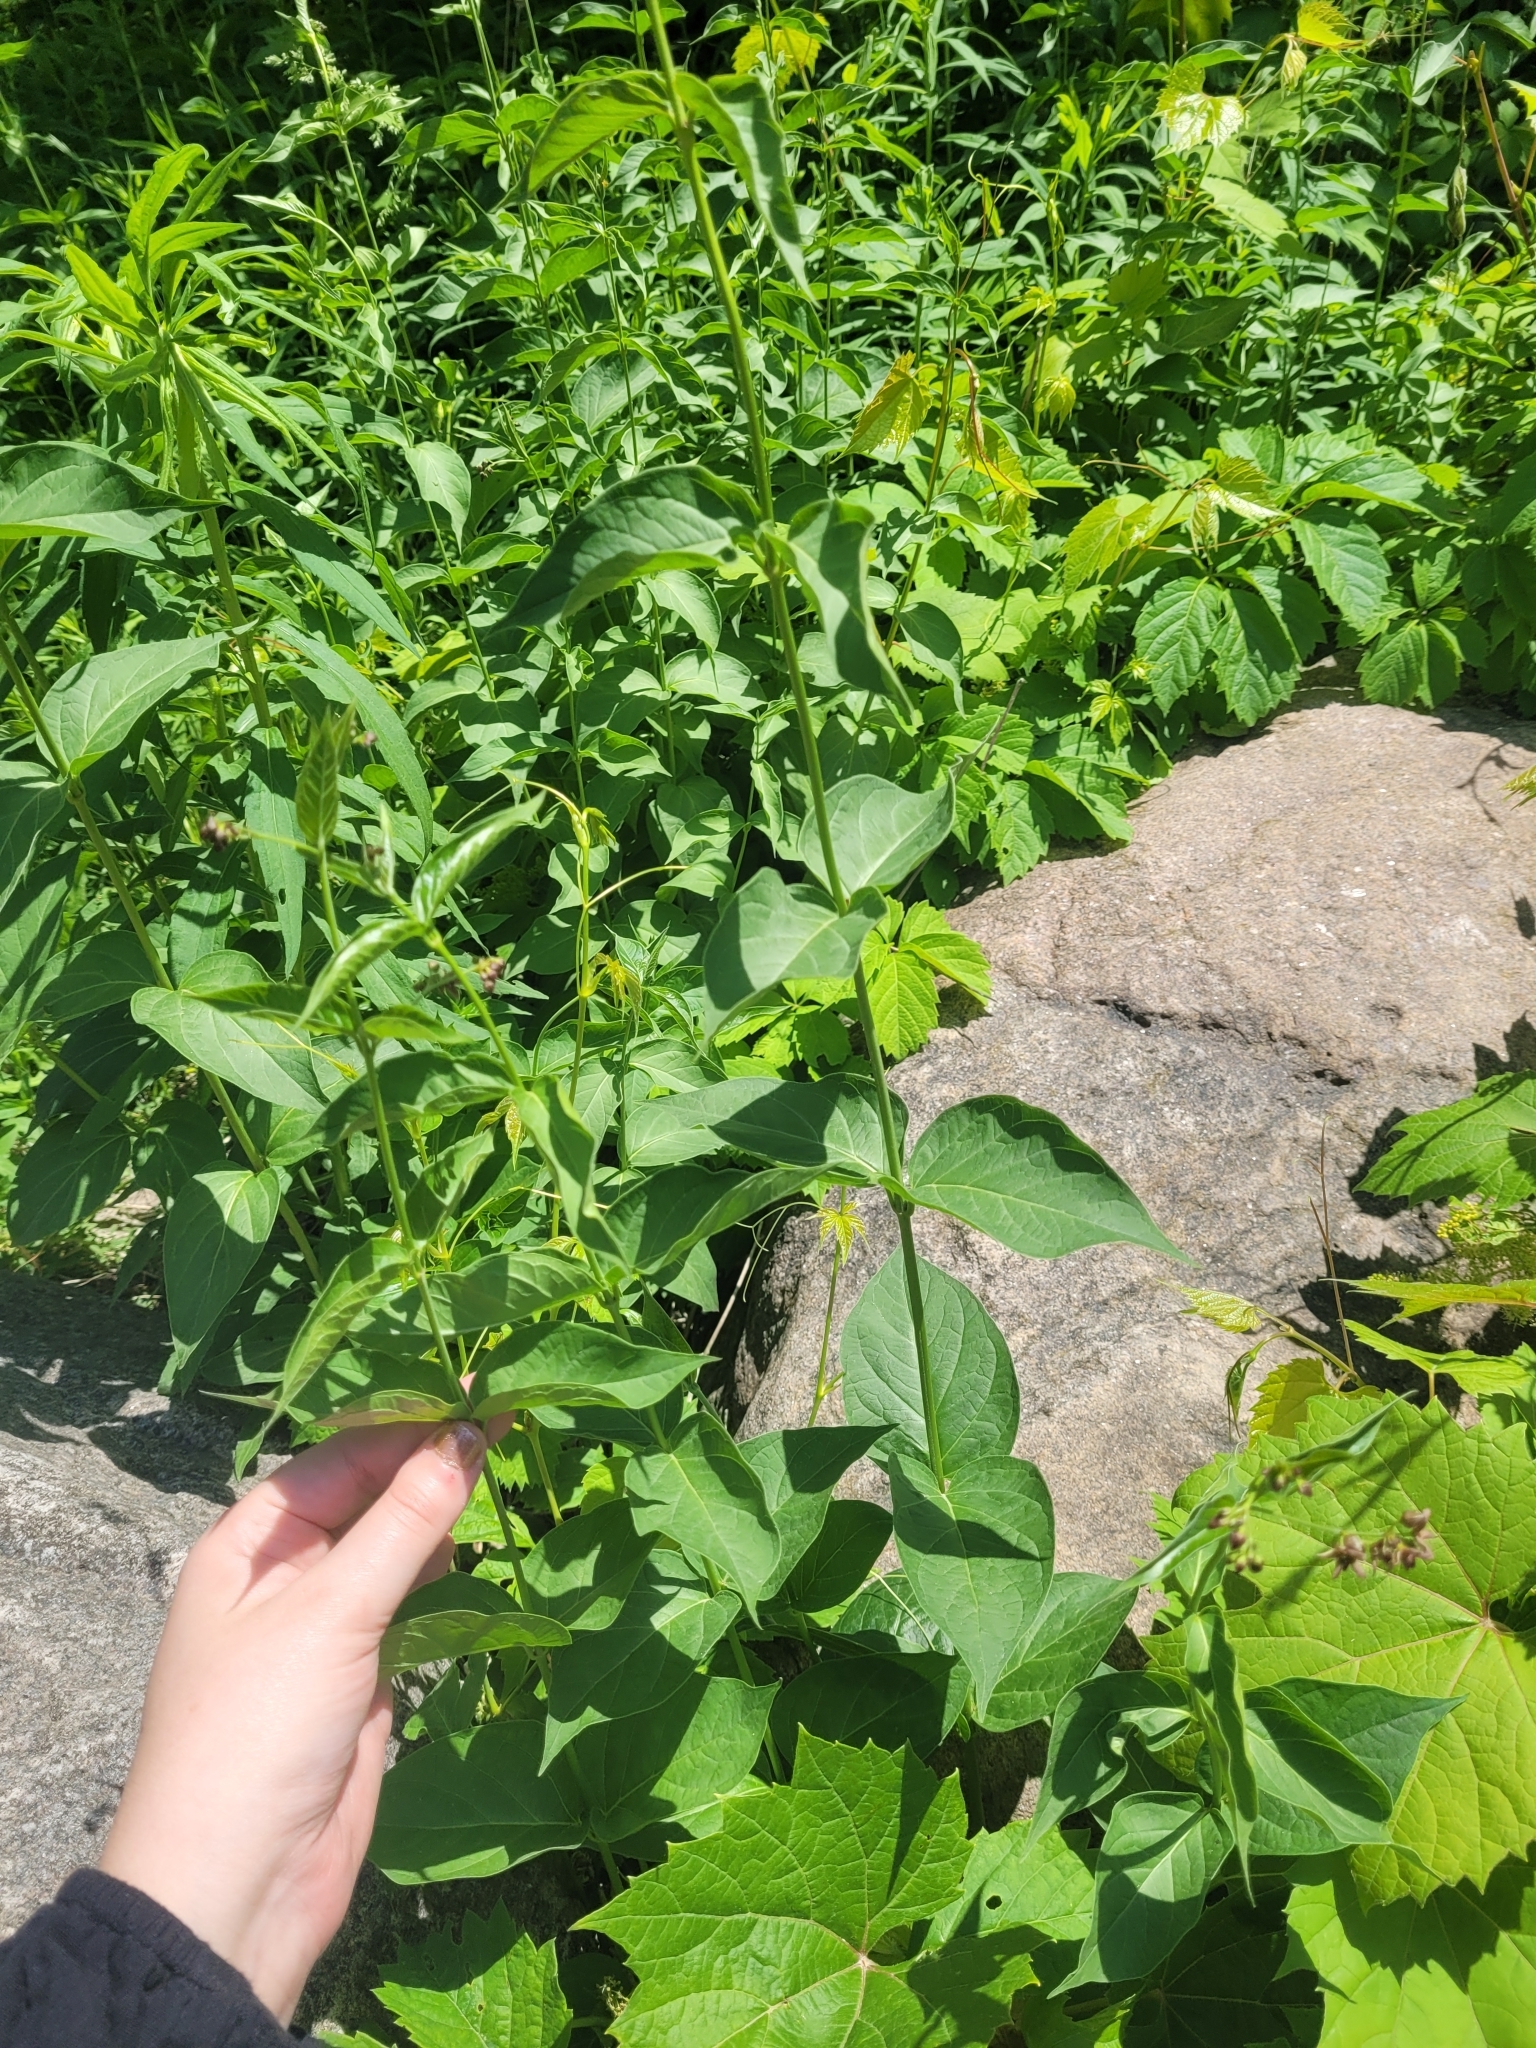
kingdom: Plantae
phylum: Tracheophyta
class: Magnoliopsida
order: Gentianales
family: Apocynaceae
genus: Vincetoxicum
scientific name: Vincetoxicum rossicum
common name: Dog-strangling vine
